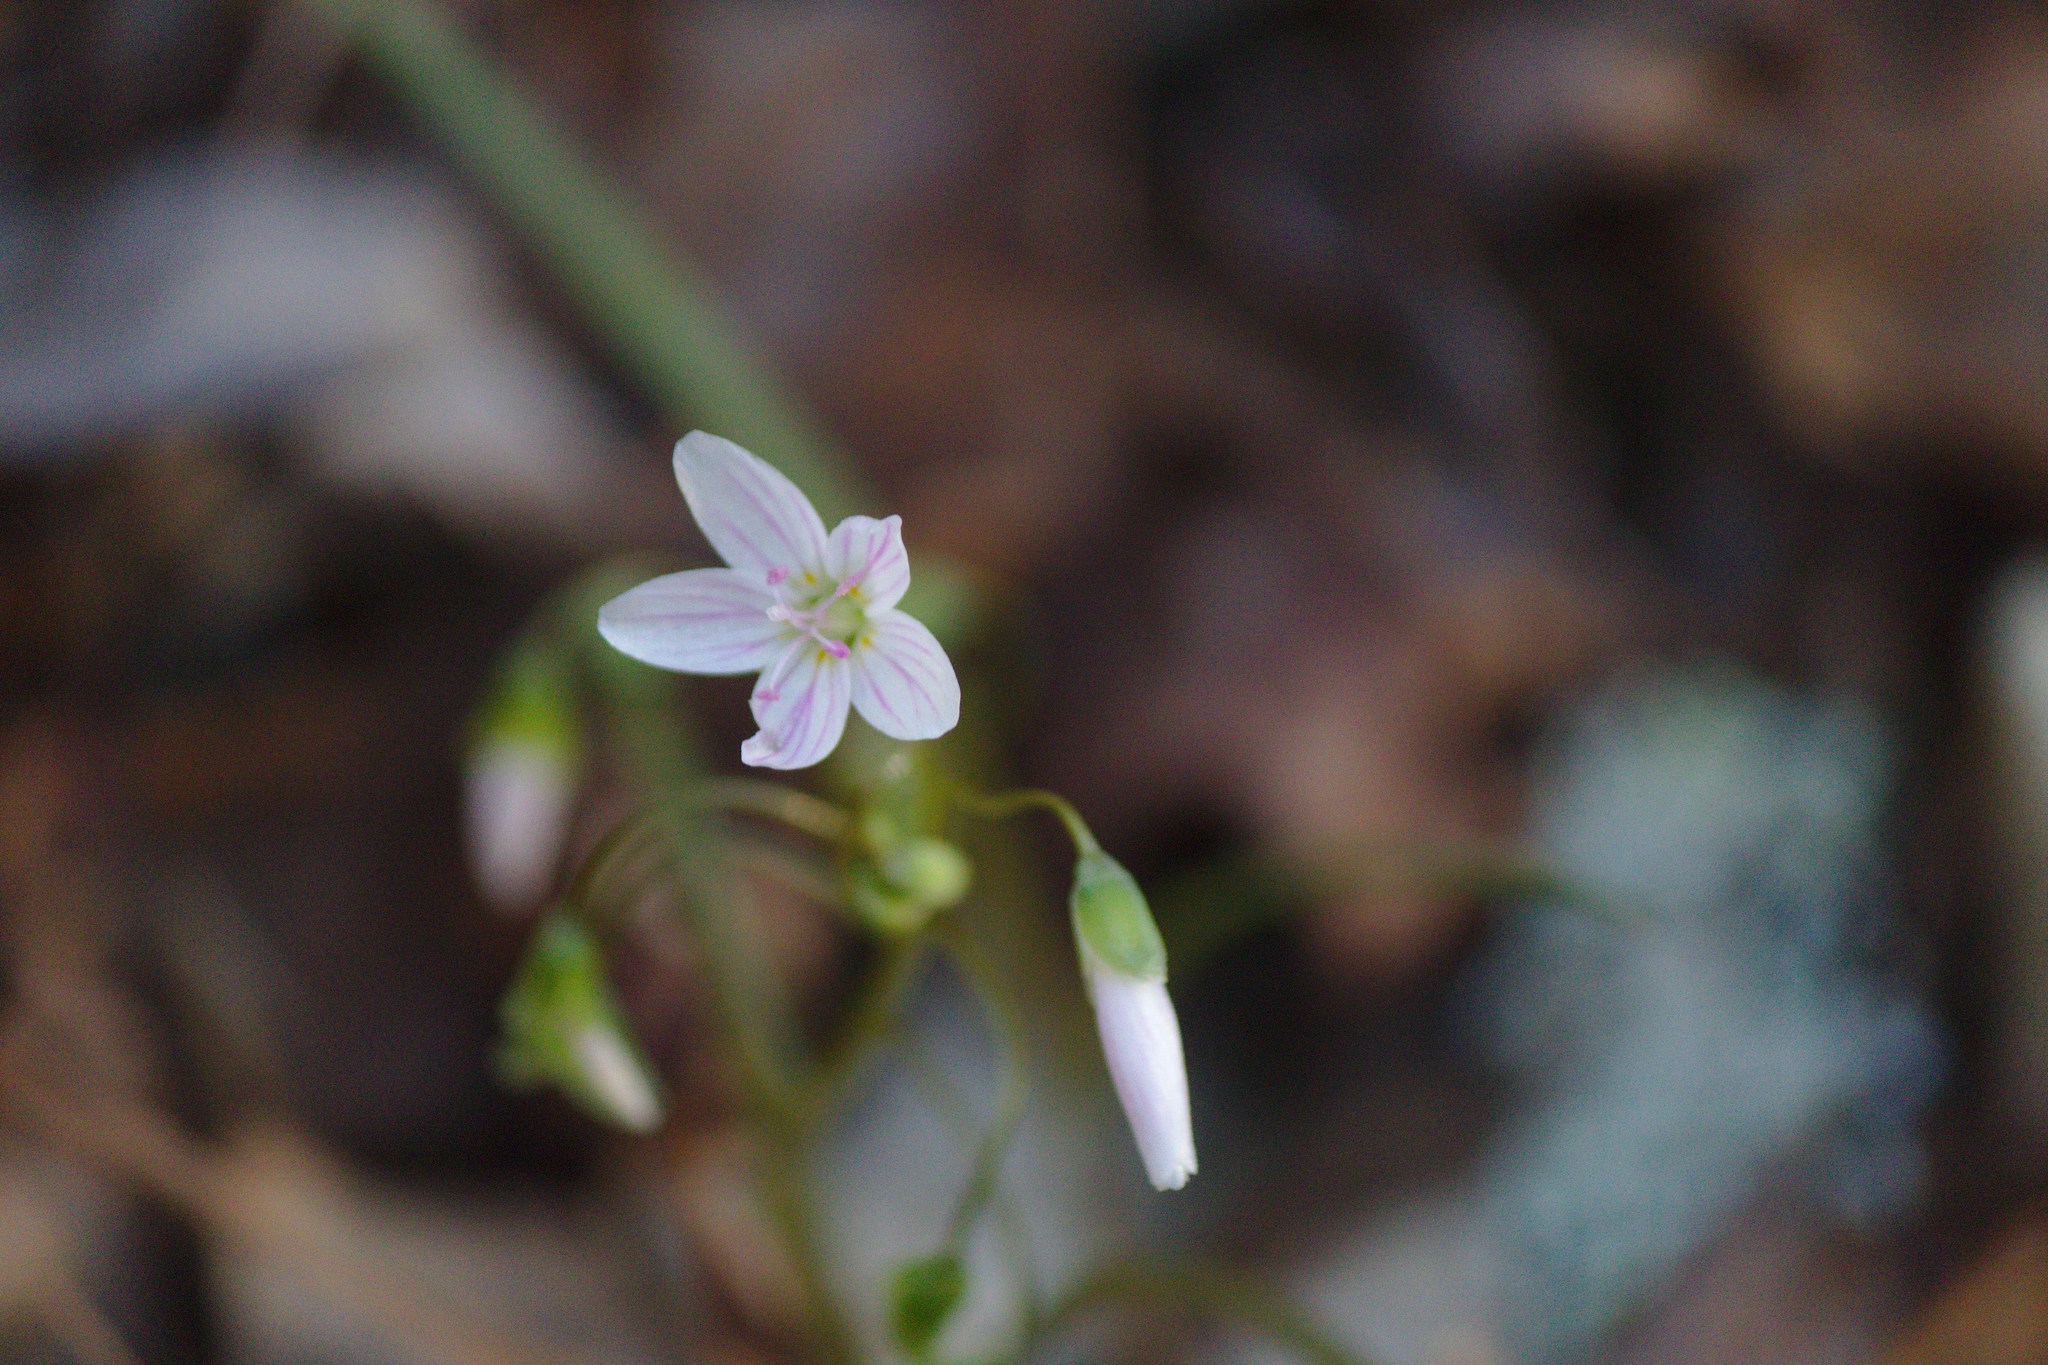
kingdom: Plantae
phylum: Tracheophyta
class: Magnoliopsida
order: Caryophyllales
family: Montiaceae
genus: Claytonia
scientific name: Claytonia virginica
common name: Virginia springbeauty
